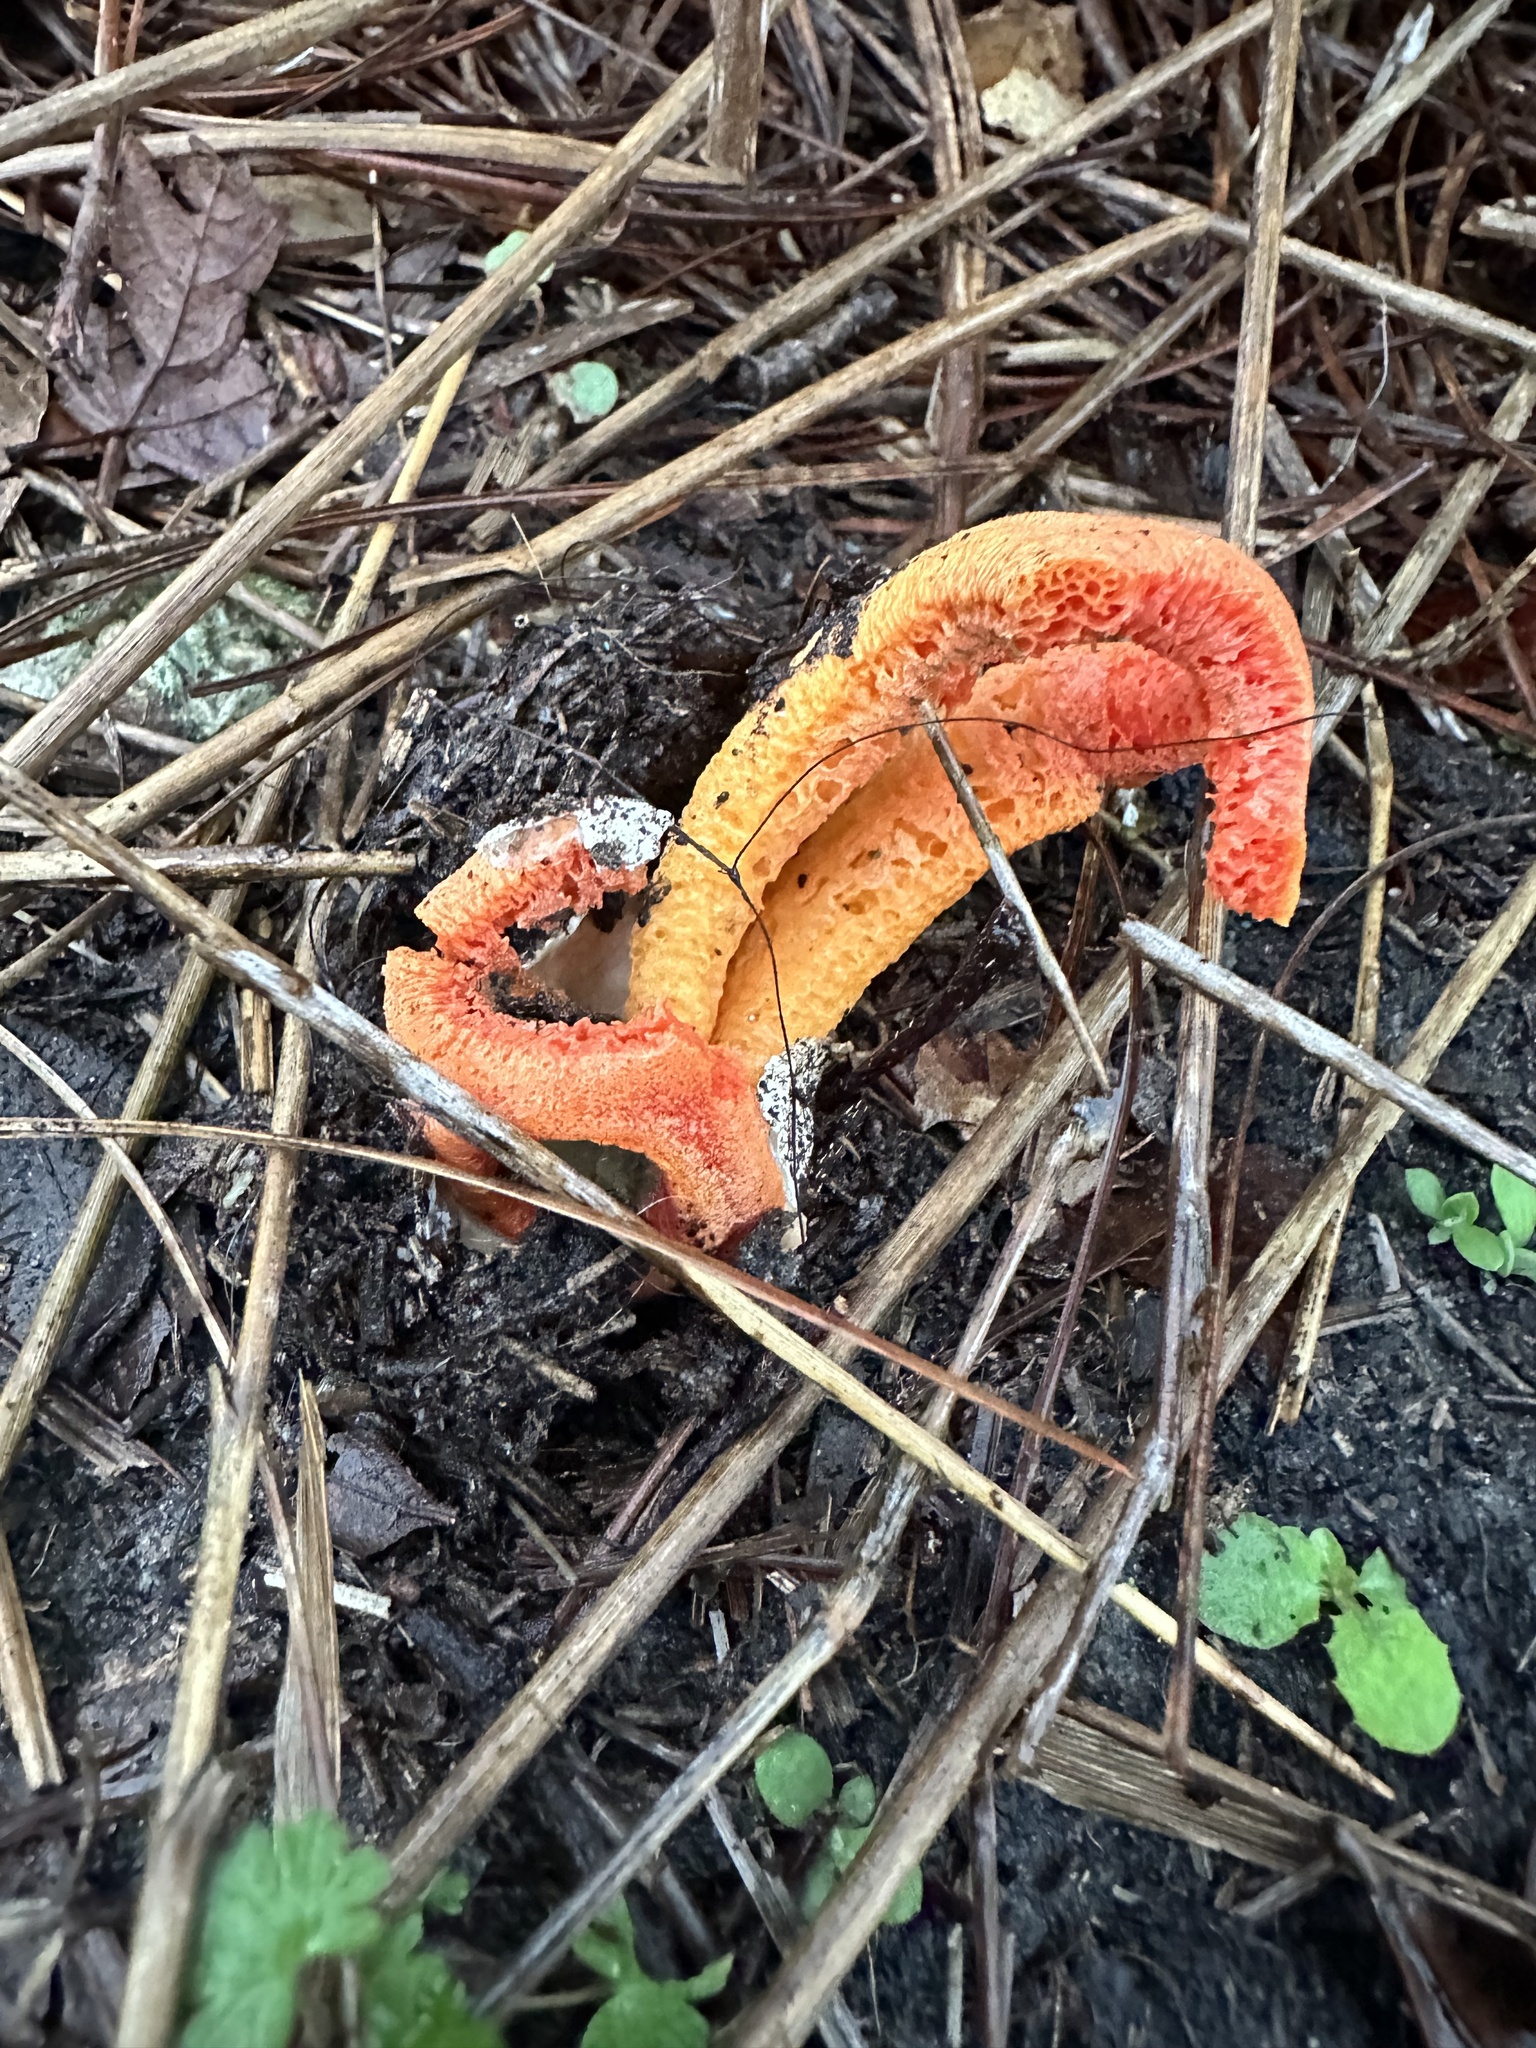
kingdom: Fungi
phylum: Basidiomycota
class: Agaricomycetes
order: Phallales
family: Phallaceae
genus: Clathrus
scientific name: Clathrus columnatus
